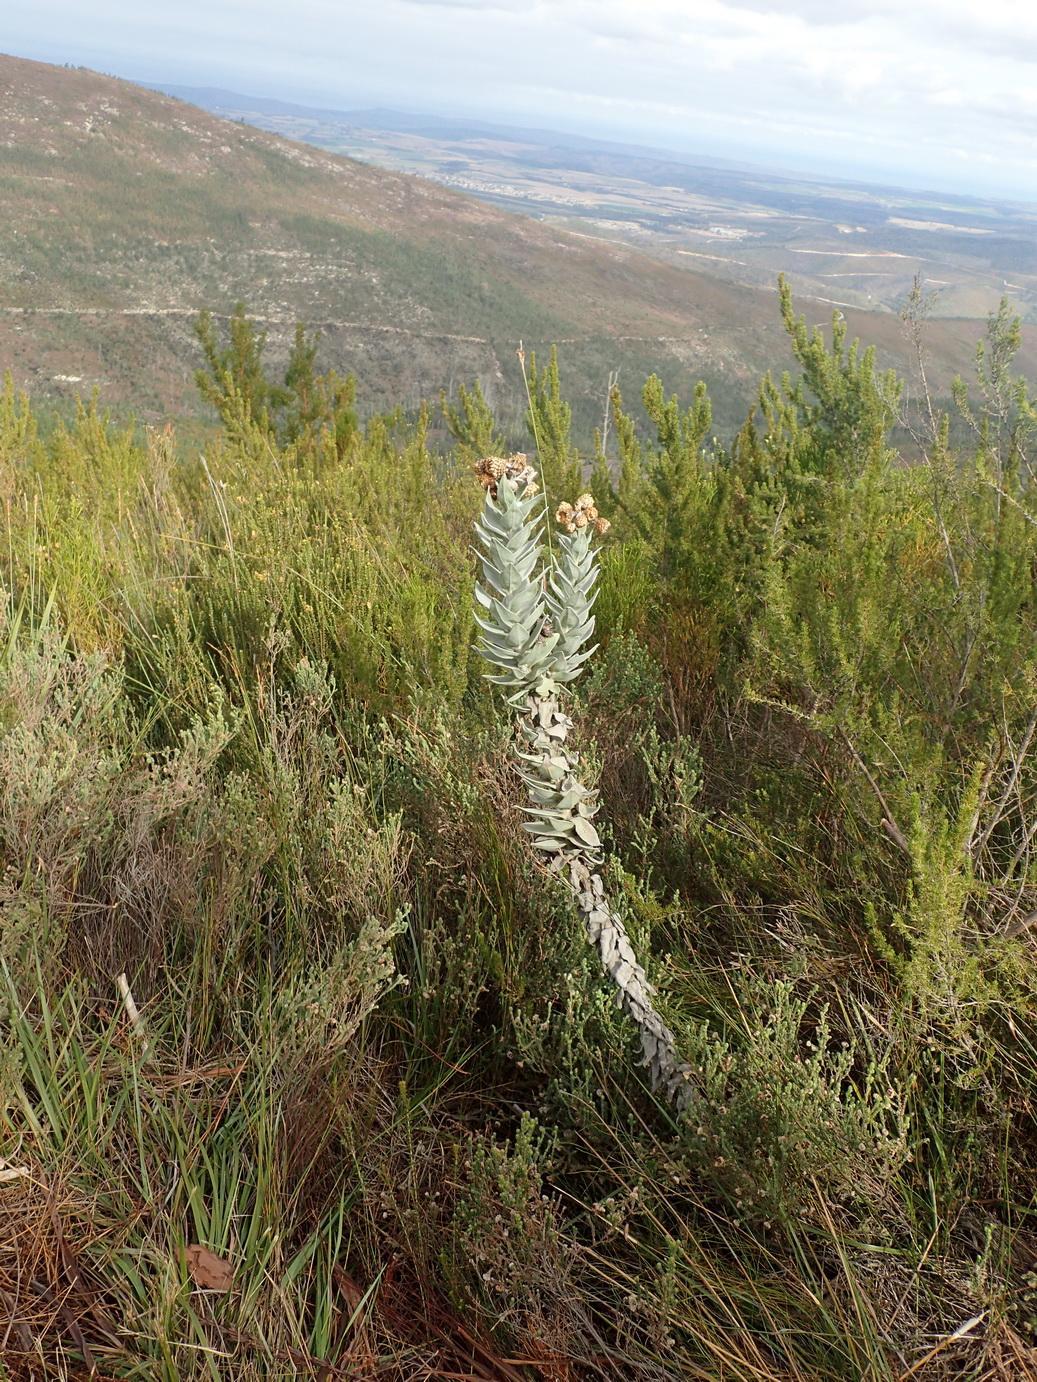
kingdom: Plantae
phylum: Tracheophyta
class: Magnoliopsida
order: Asterales
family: Asteraceae
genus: Syncarpha
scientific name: Syncarpha eximia
